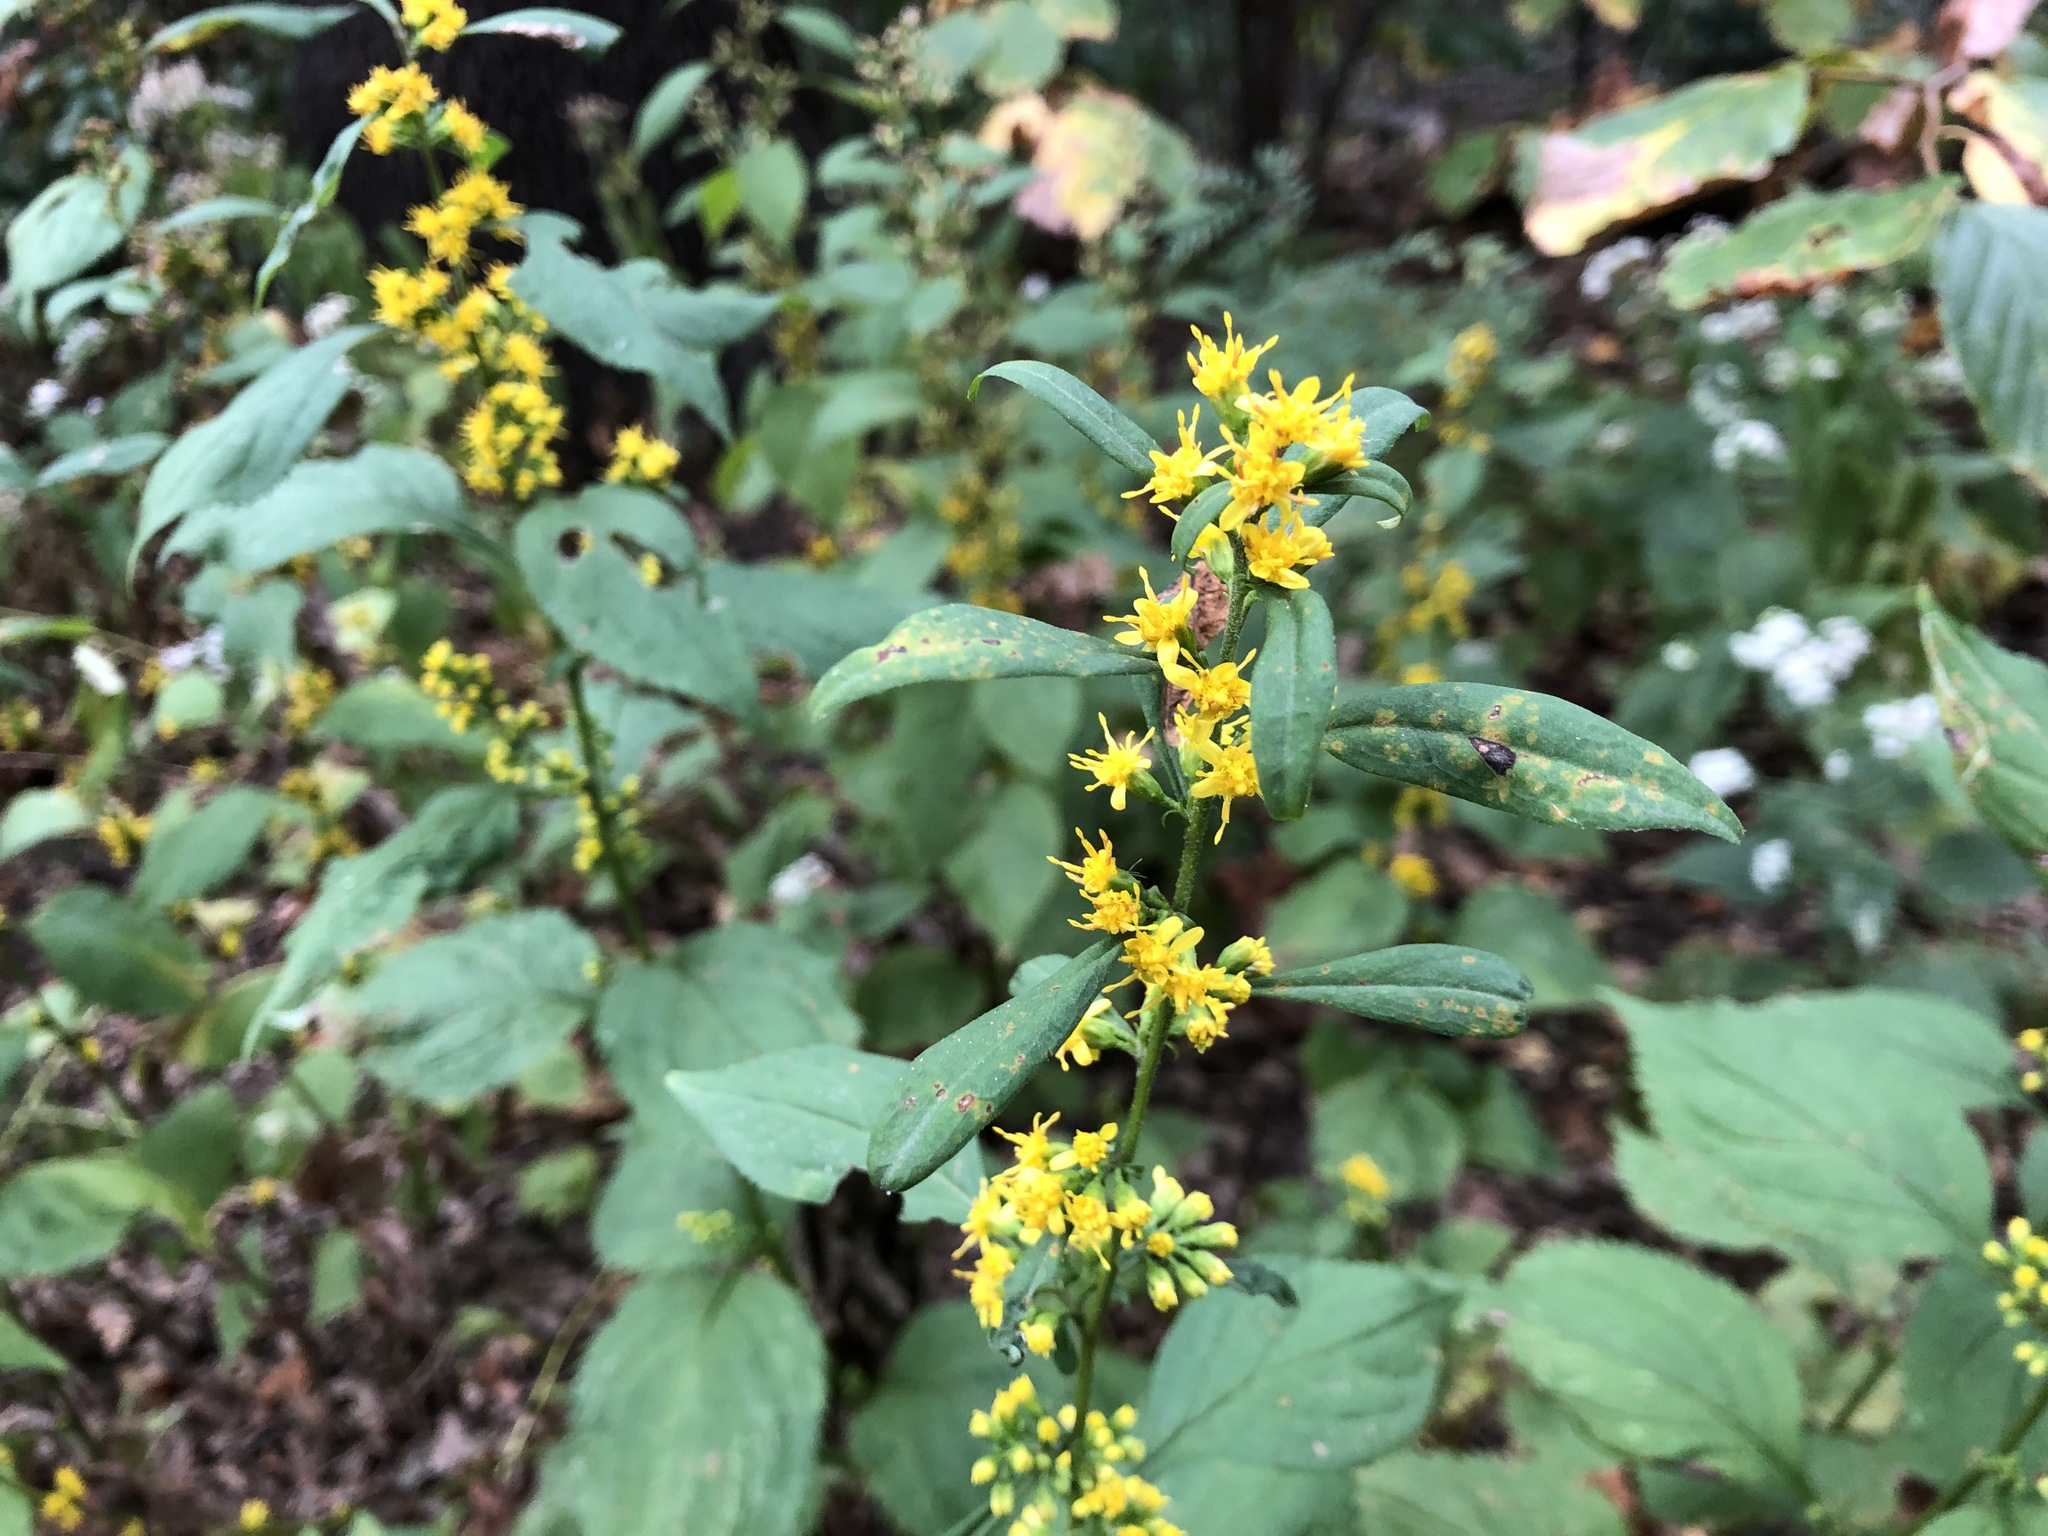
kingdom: Plantae
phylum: Tracheophyta
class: Magnoliopsida
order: Asterales
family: Asteraceae
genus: Solidago
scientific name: Solidago caesia
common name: Woodland goldenrod
